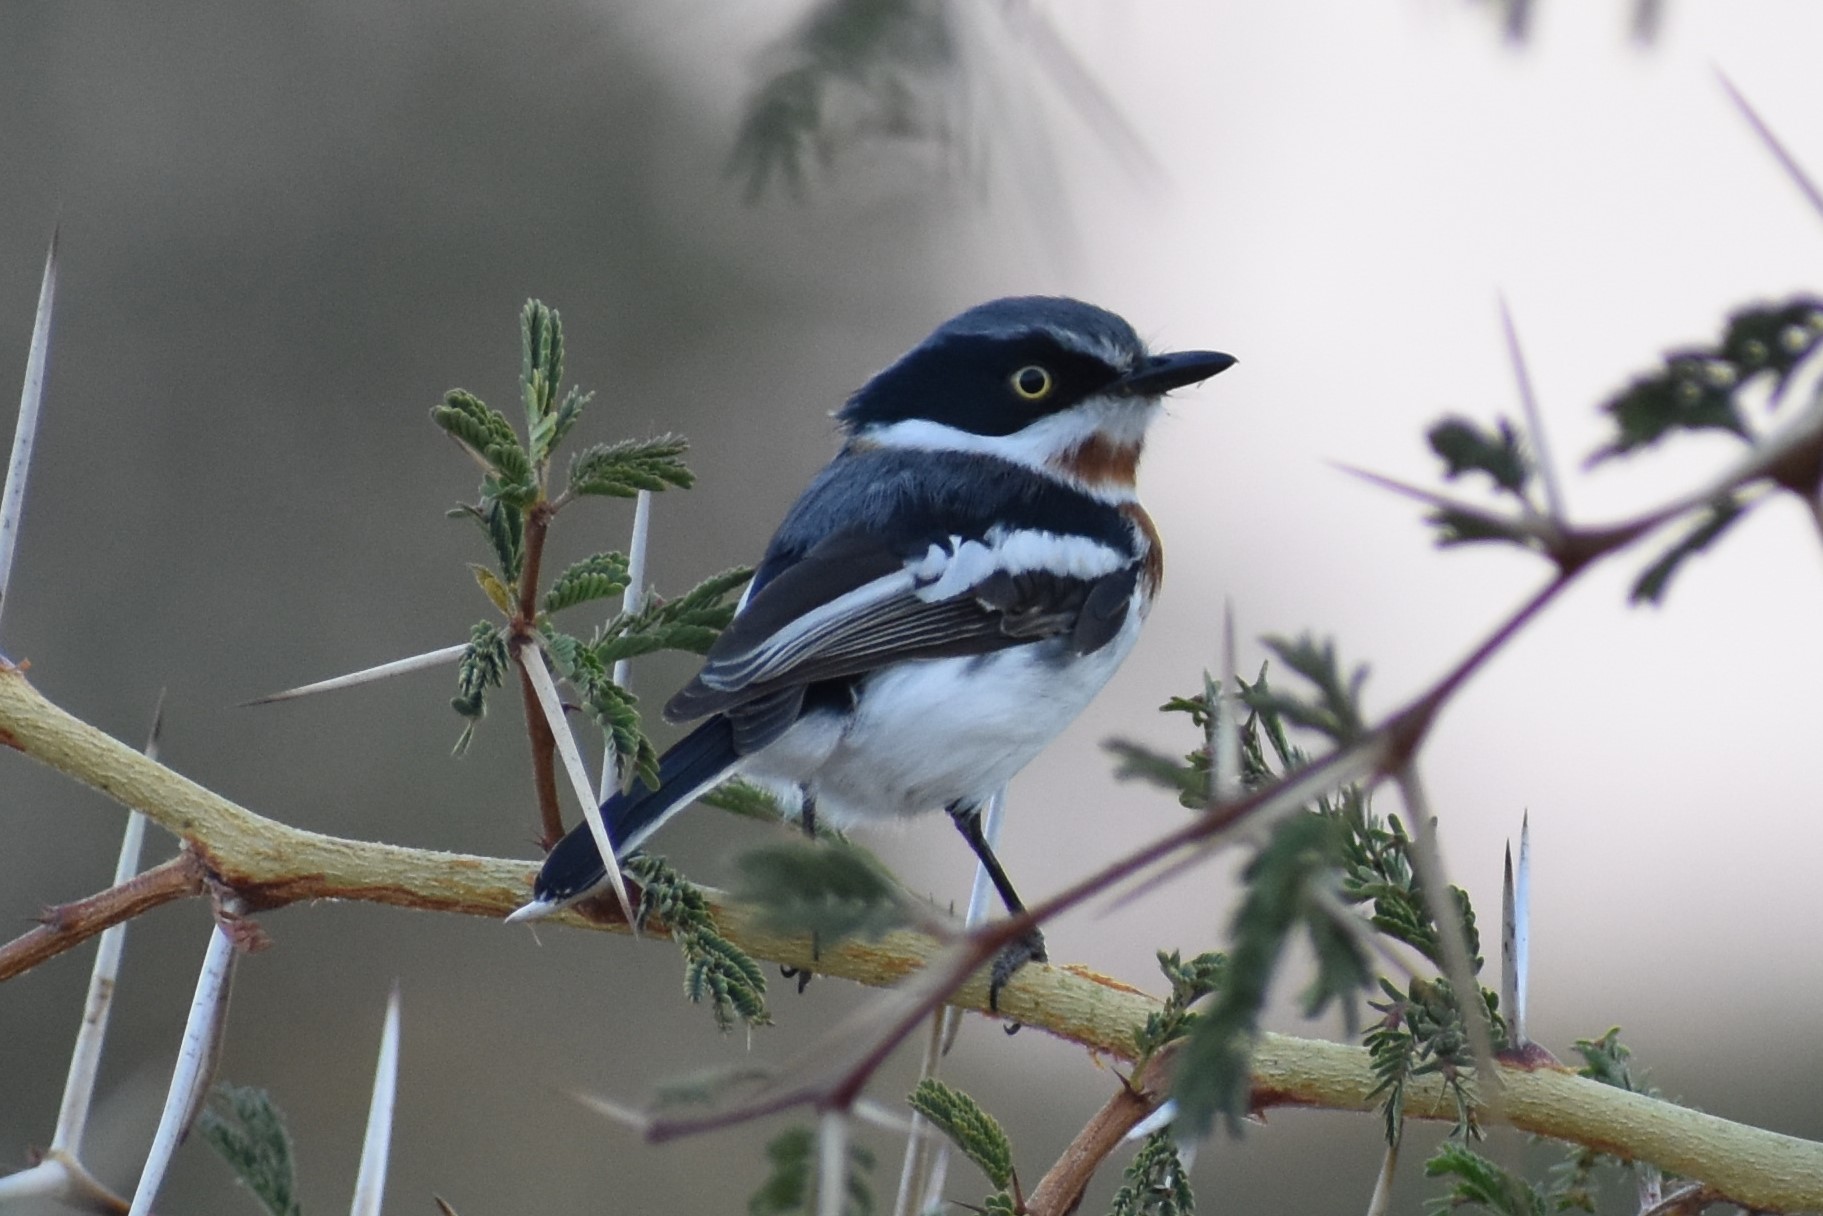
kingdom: Animalia
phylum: Chordata
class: Aves
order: Passeriformes
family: Platysteiridae
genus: Batis
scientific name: Batis molitor
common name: Chinspot batis
